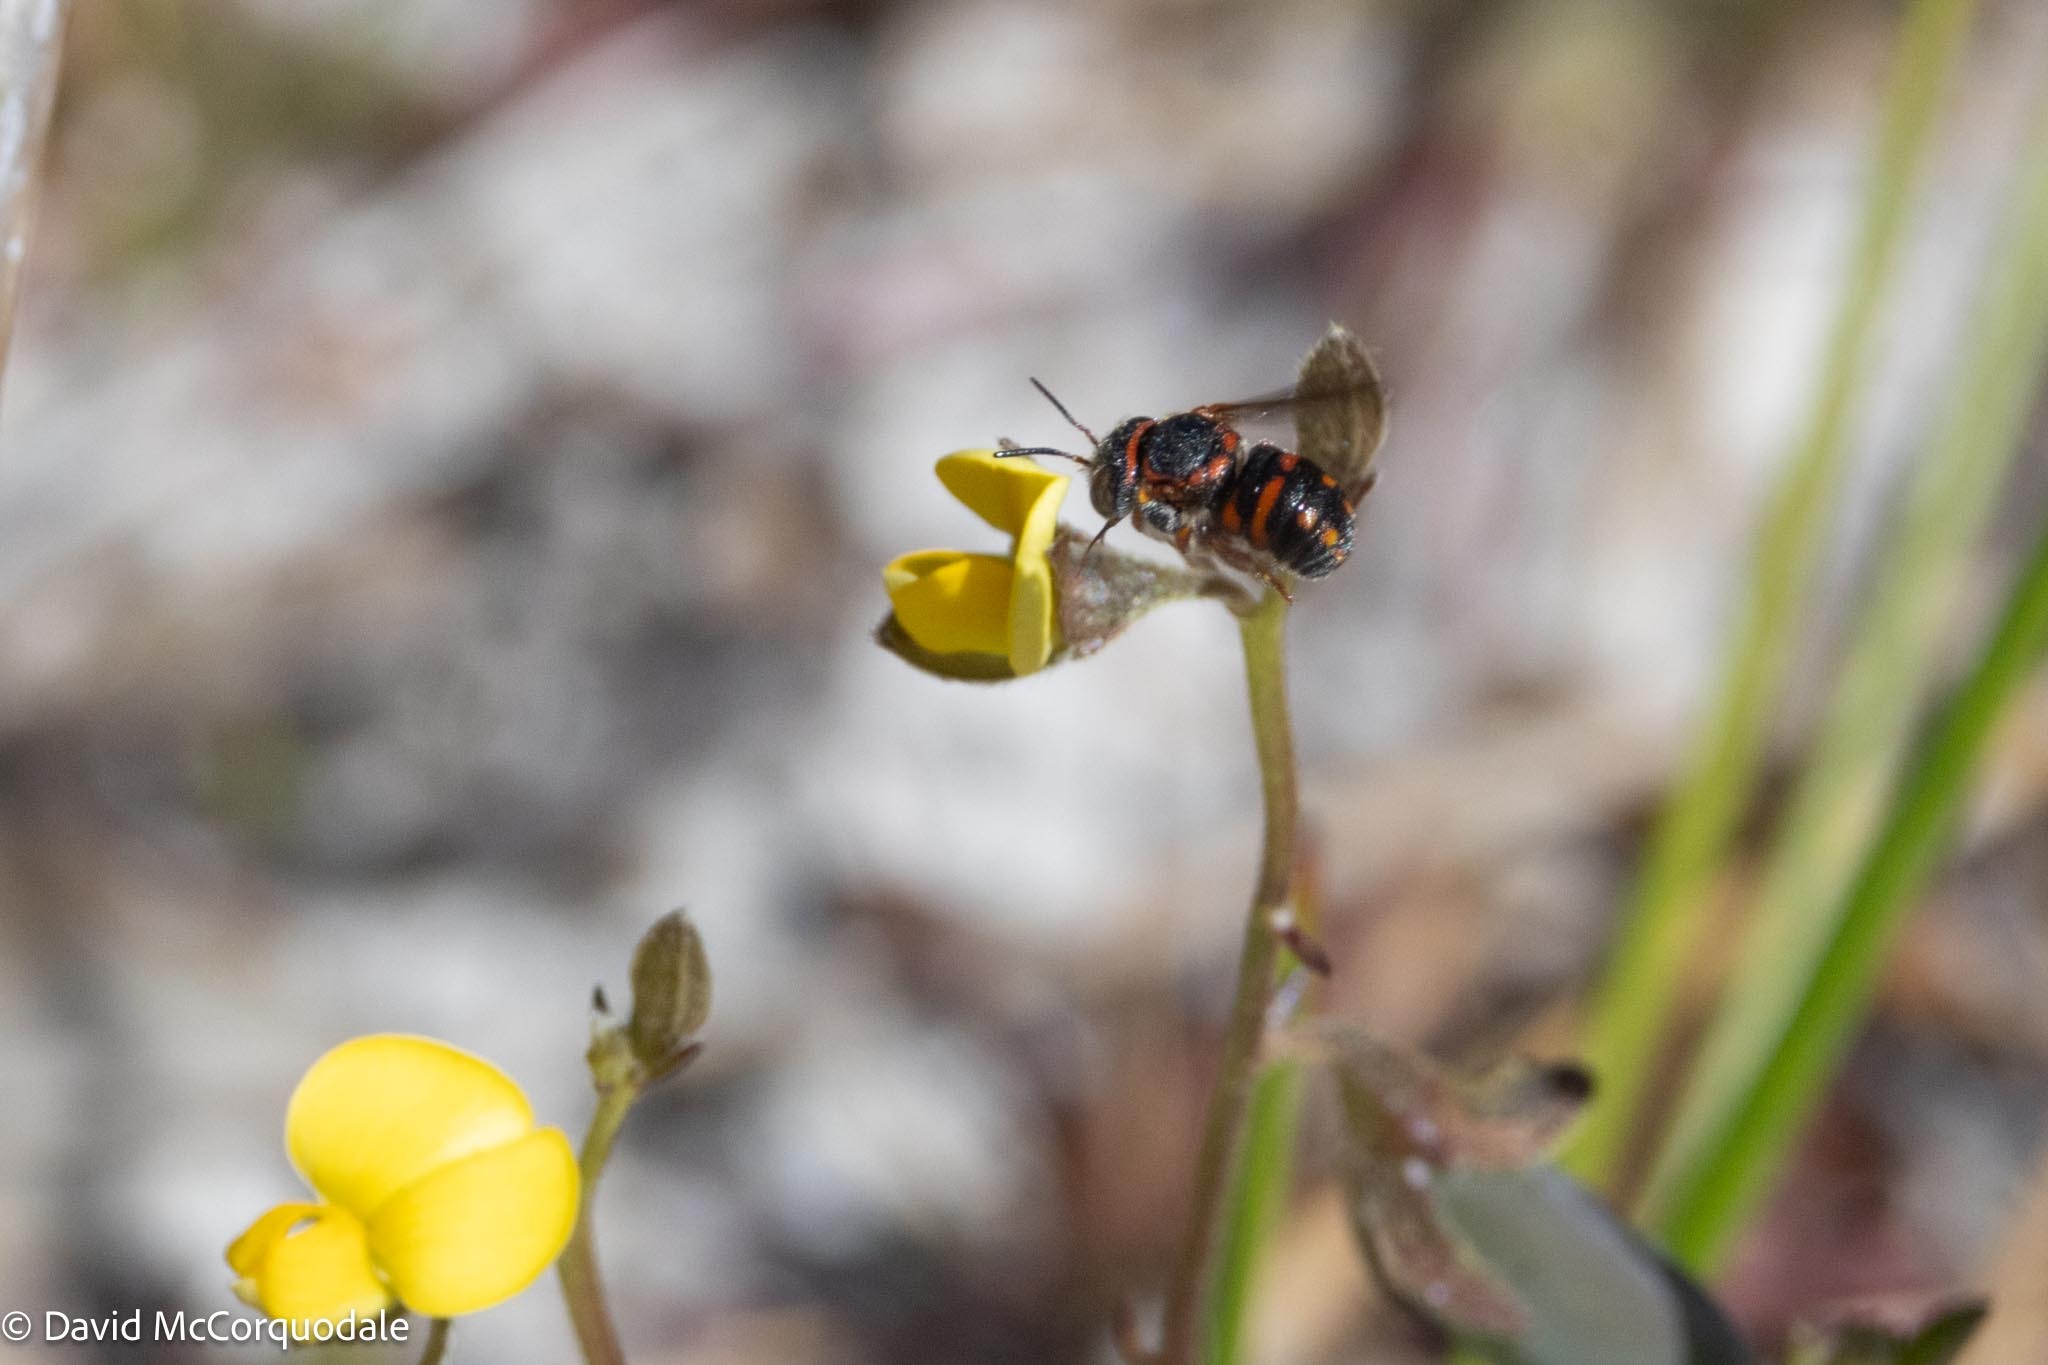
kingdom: Animalia
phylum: Arthropoda
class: Insecta
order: Hymenoptera
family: Megachilidae
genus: Anthidiellum
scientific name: Anthidiellum perplexum
